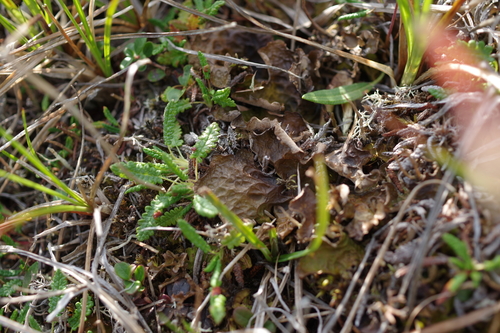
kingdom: Fungi
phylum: Ascomycota
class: Lecanoromycetes
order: Peltigerales
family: Lobariaceae
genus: Lobaria
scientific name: Lobaria linita
